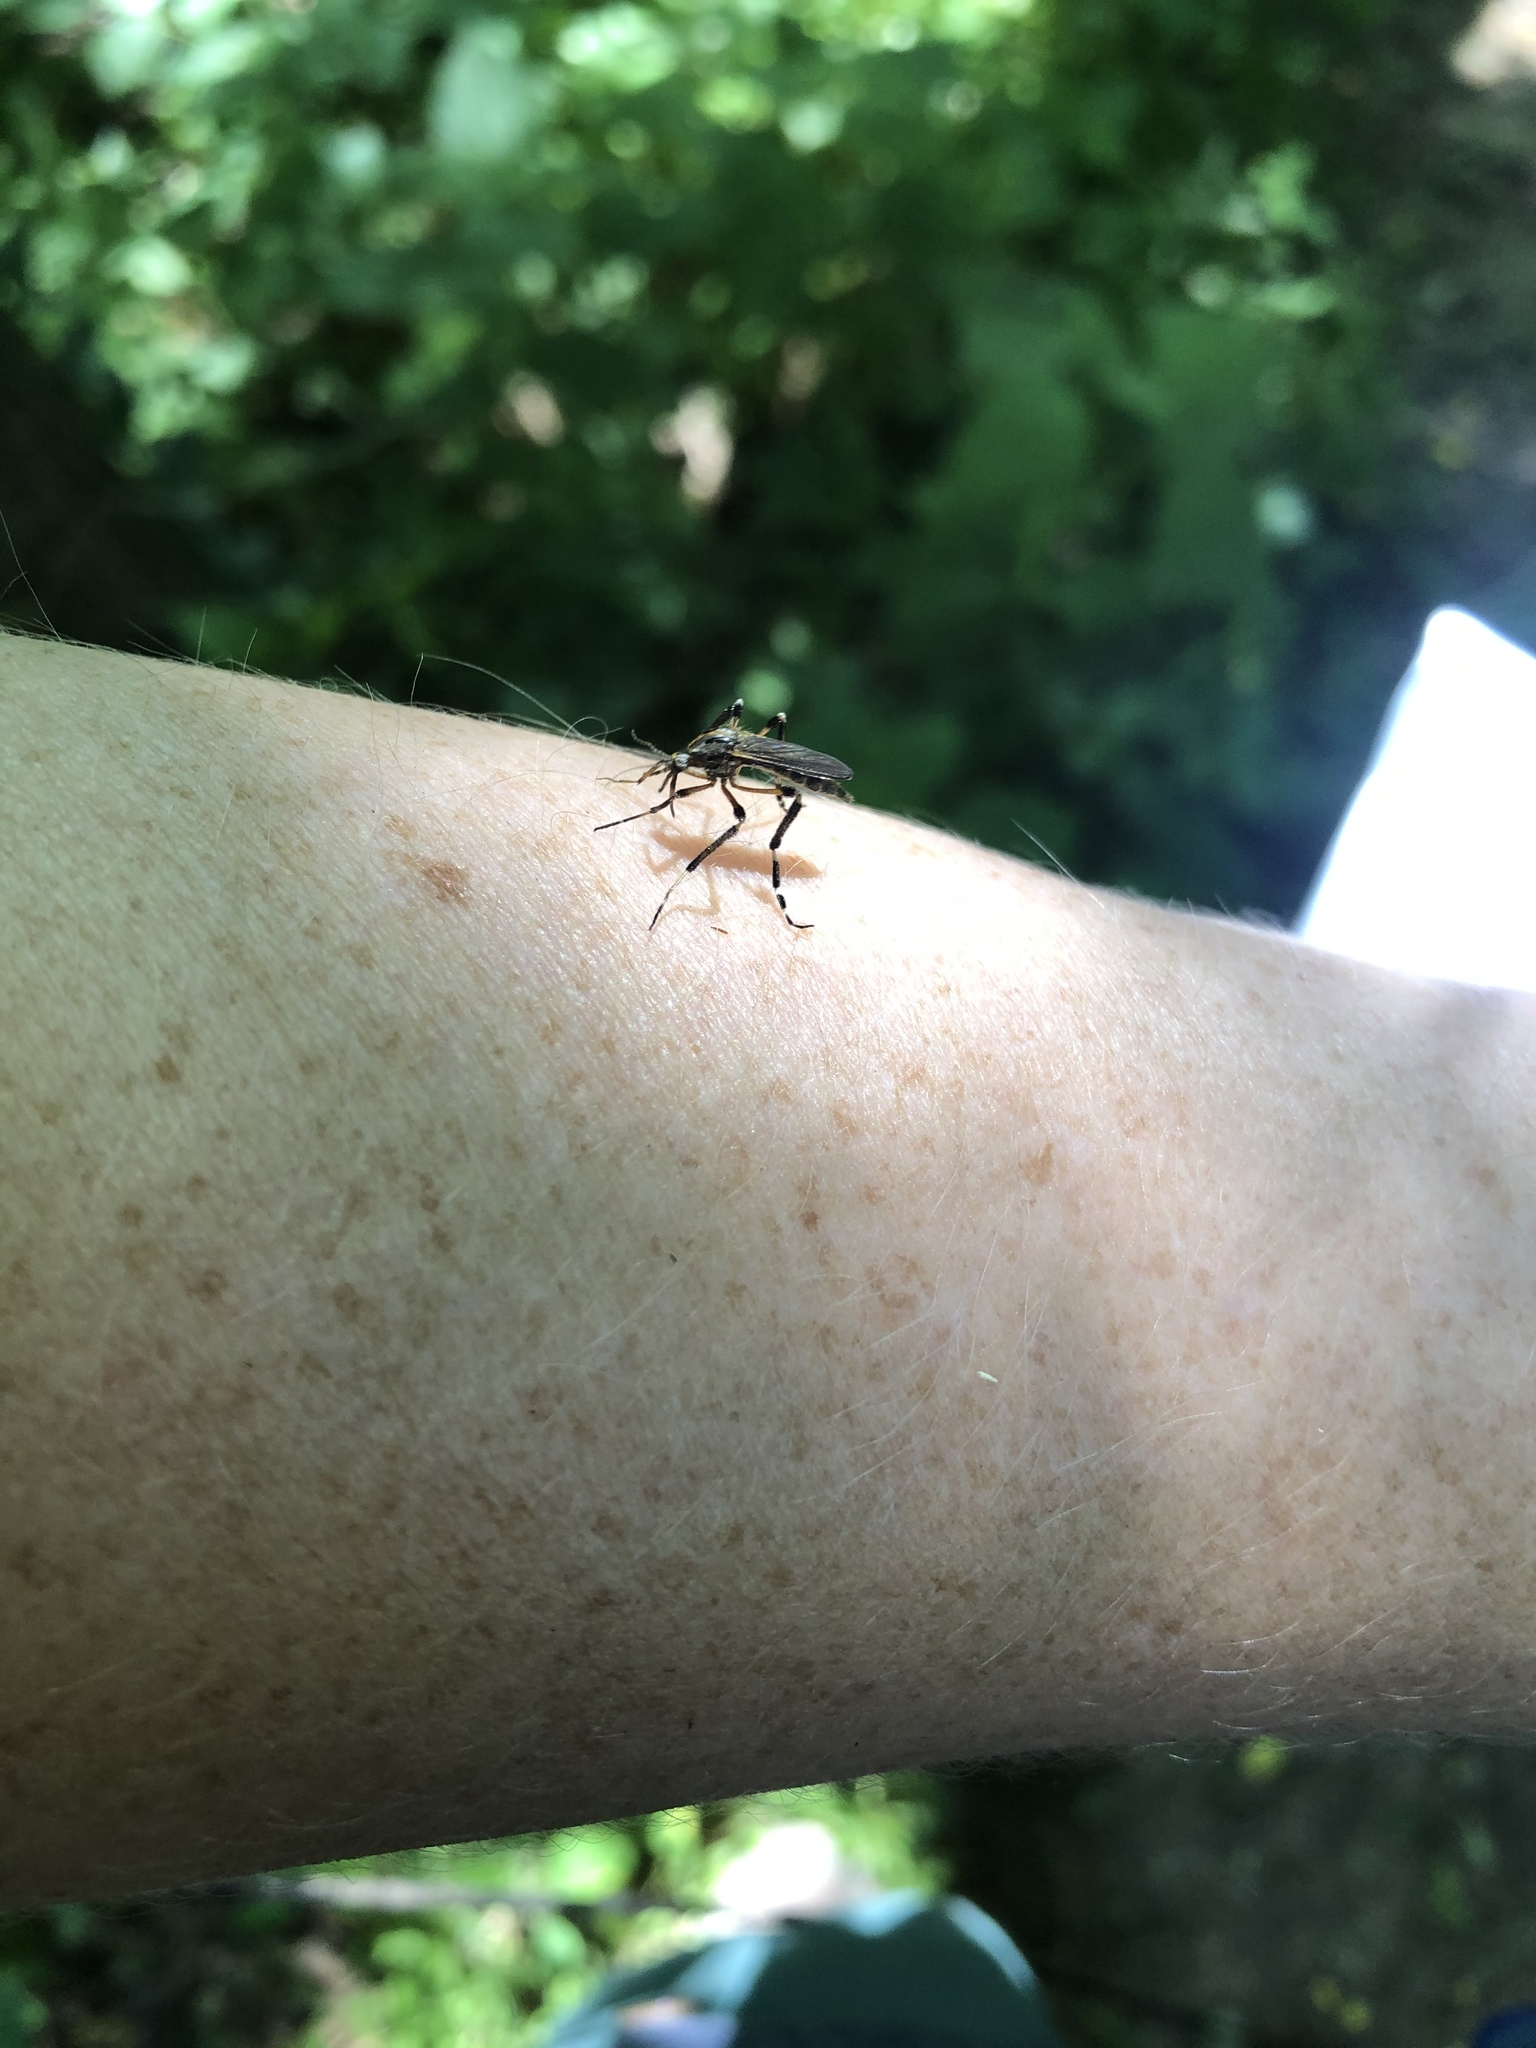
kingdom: Animalia
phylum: Arthropoda
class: Insecta
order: Diptera
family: Culicidae
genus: Psorophora
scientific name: Psorophora ciliata
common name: Gallinipper
